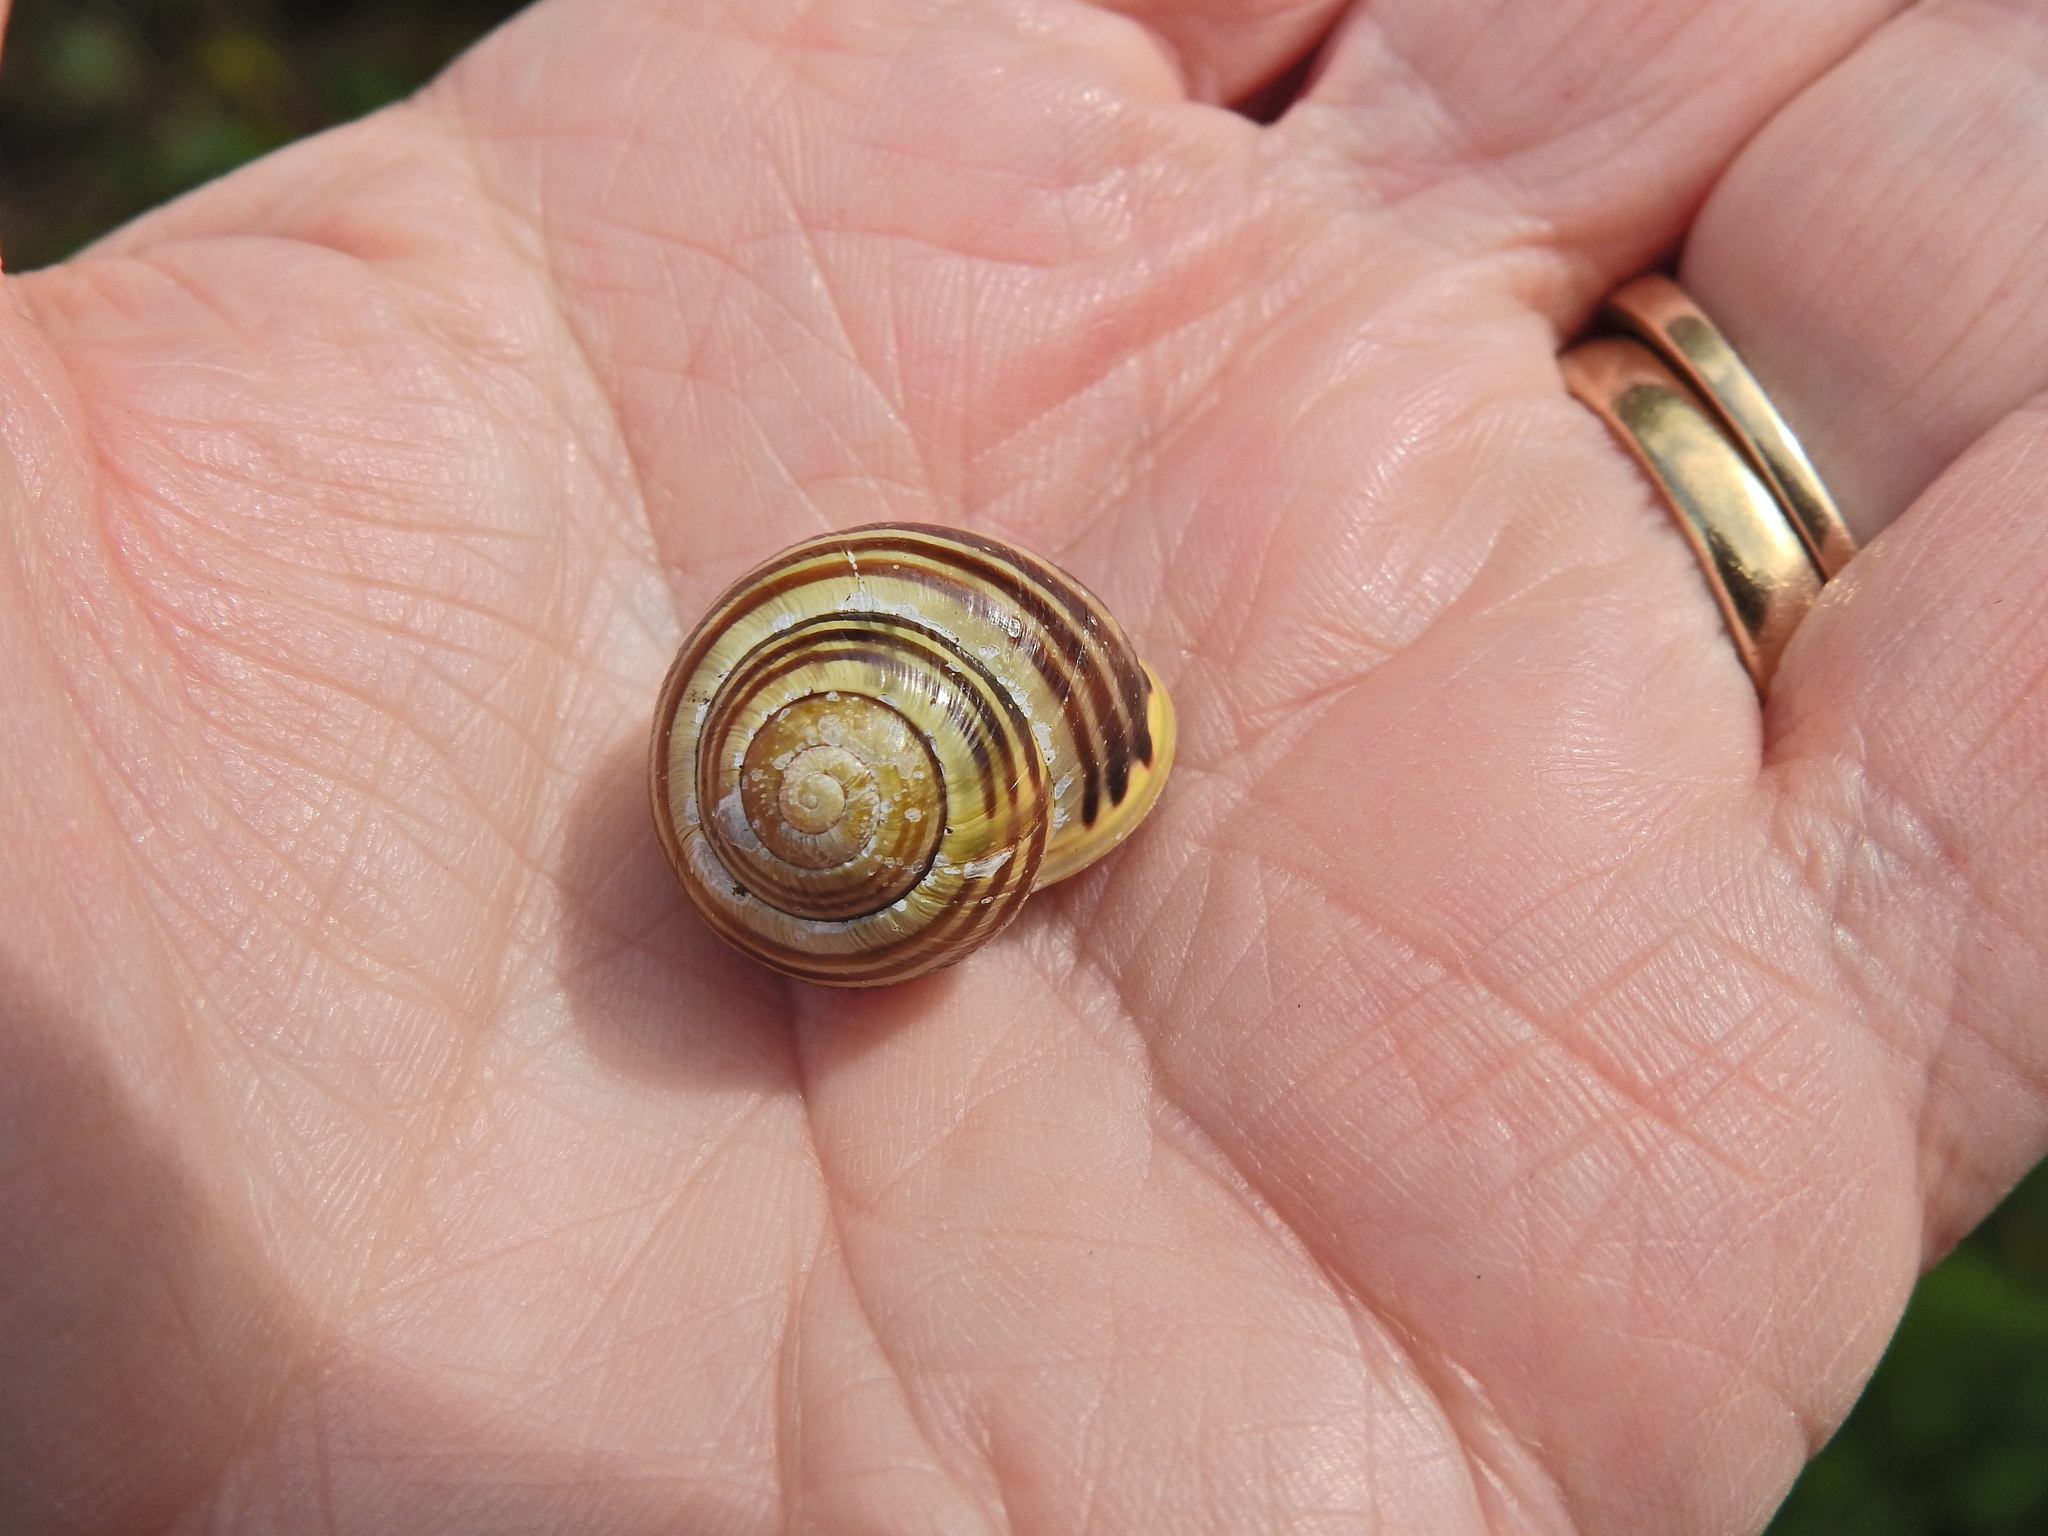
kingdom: Animalia
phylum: Mollusca
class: Gastropoda
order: Stylommatophora
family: Helicidae
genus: Cepaea
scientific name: Cepaea hortensis
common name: White-lip gardensnail
